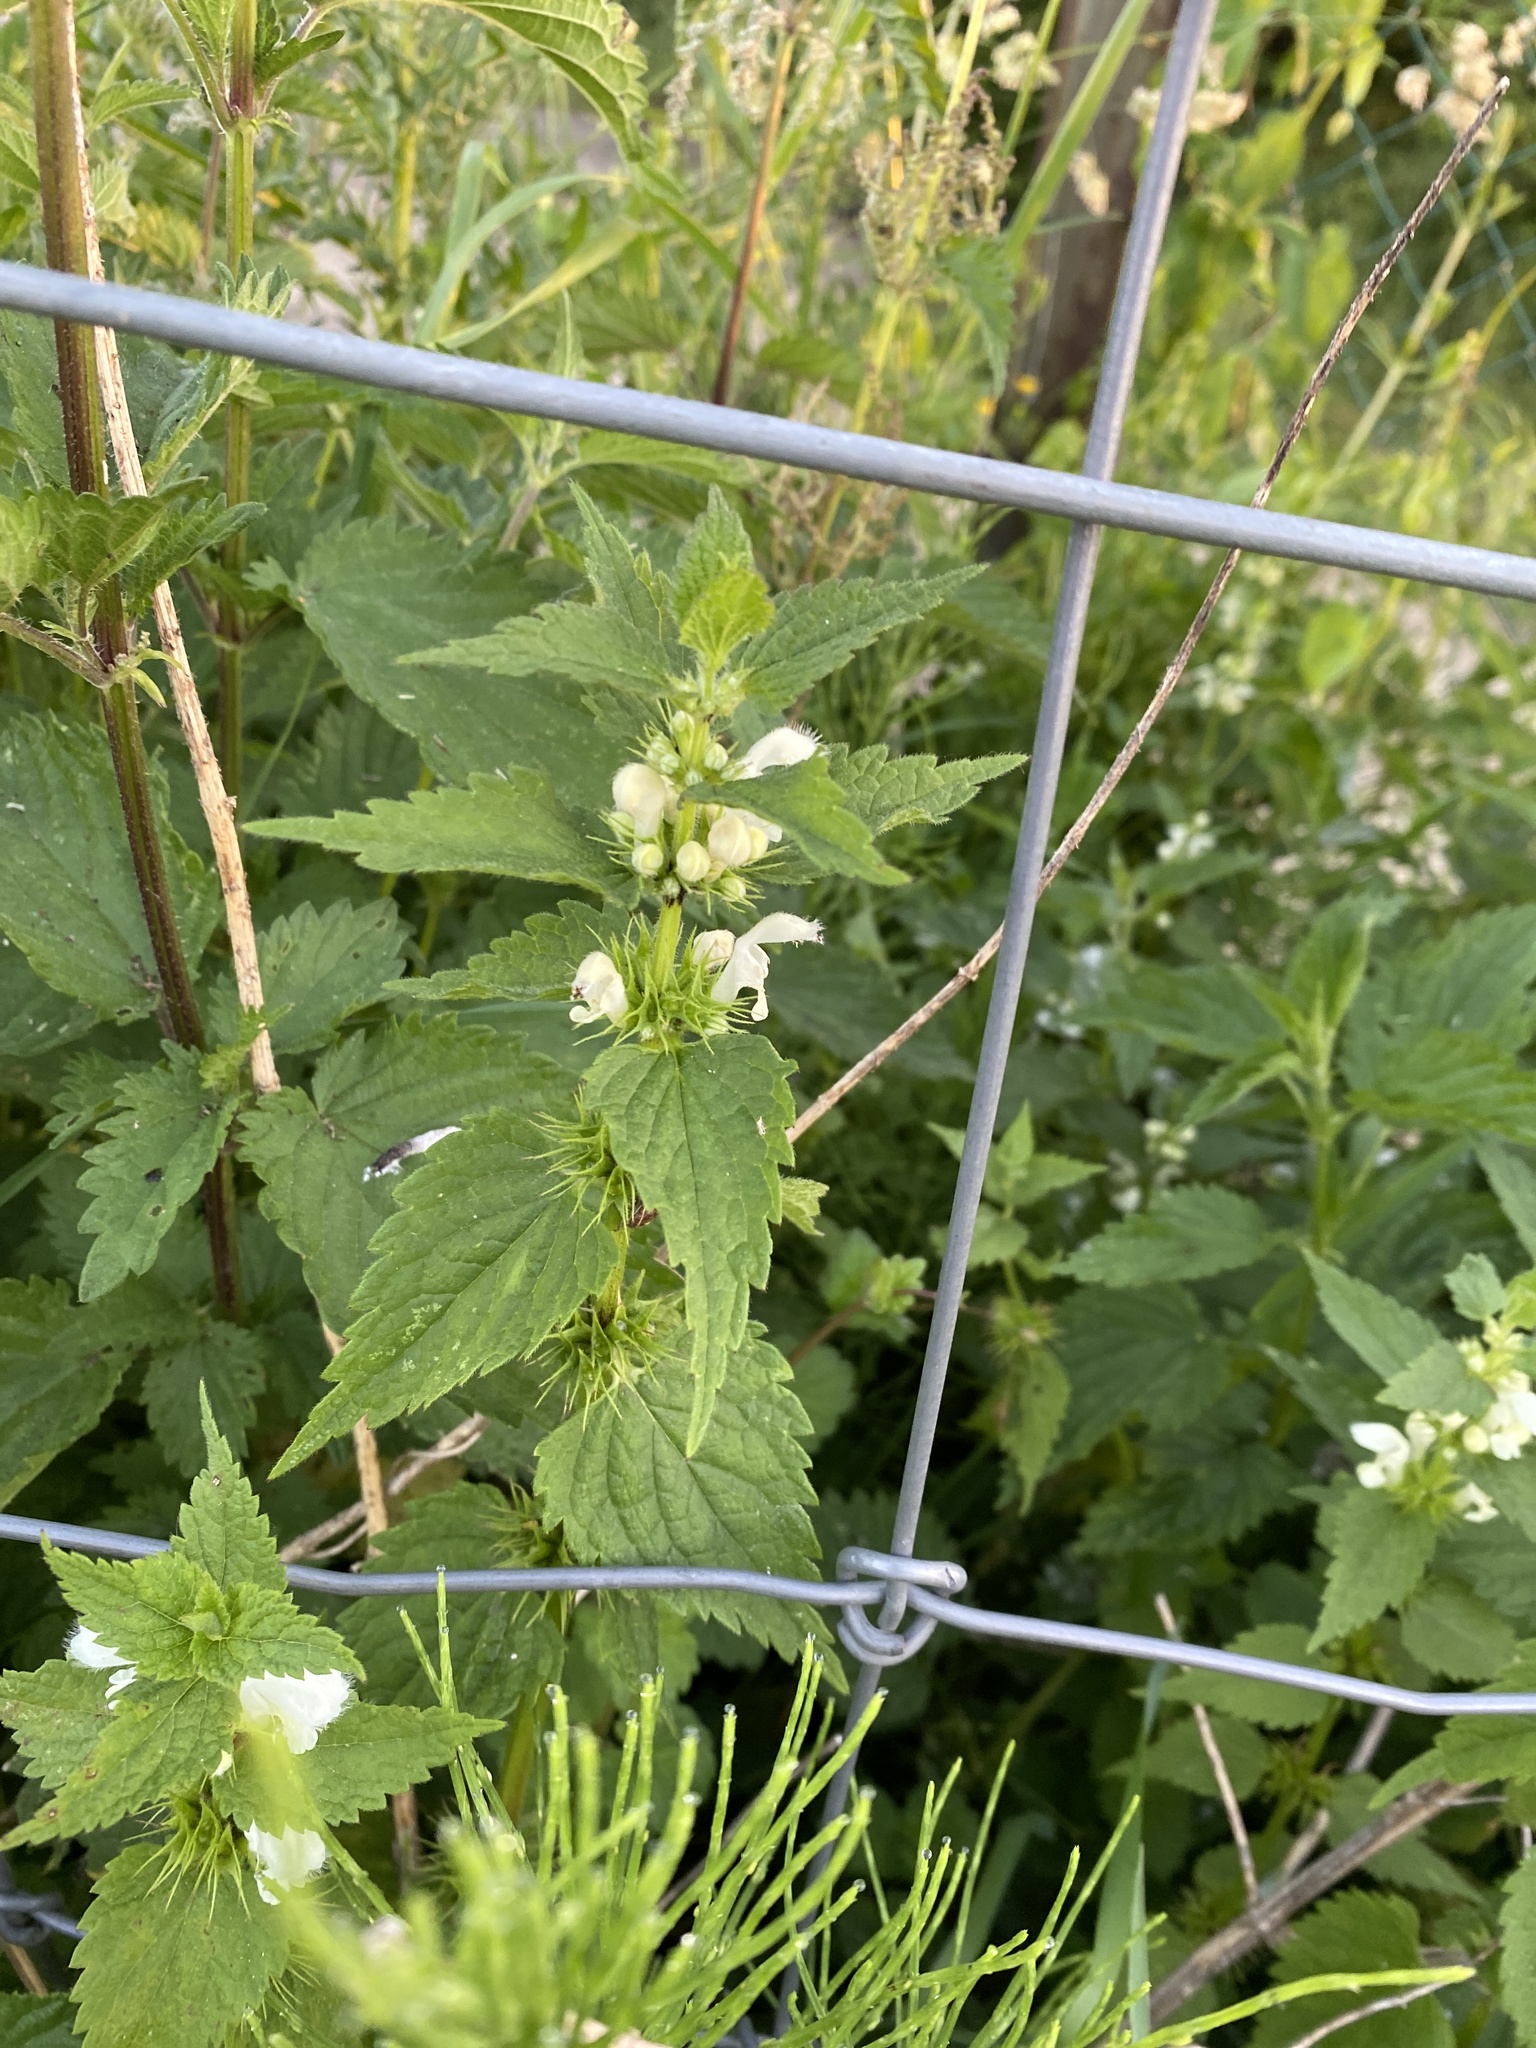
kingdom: Plantae
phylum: Tracheophyta
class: Magnoliopsida
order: Lamiales
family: Lamiaceae
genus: Lamium
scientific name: Lamium album
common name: White dead-nettle
